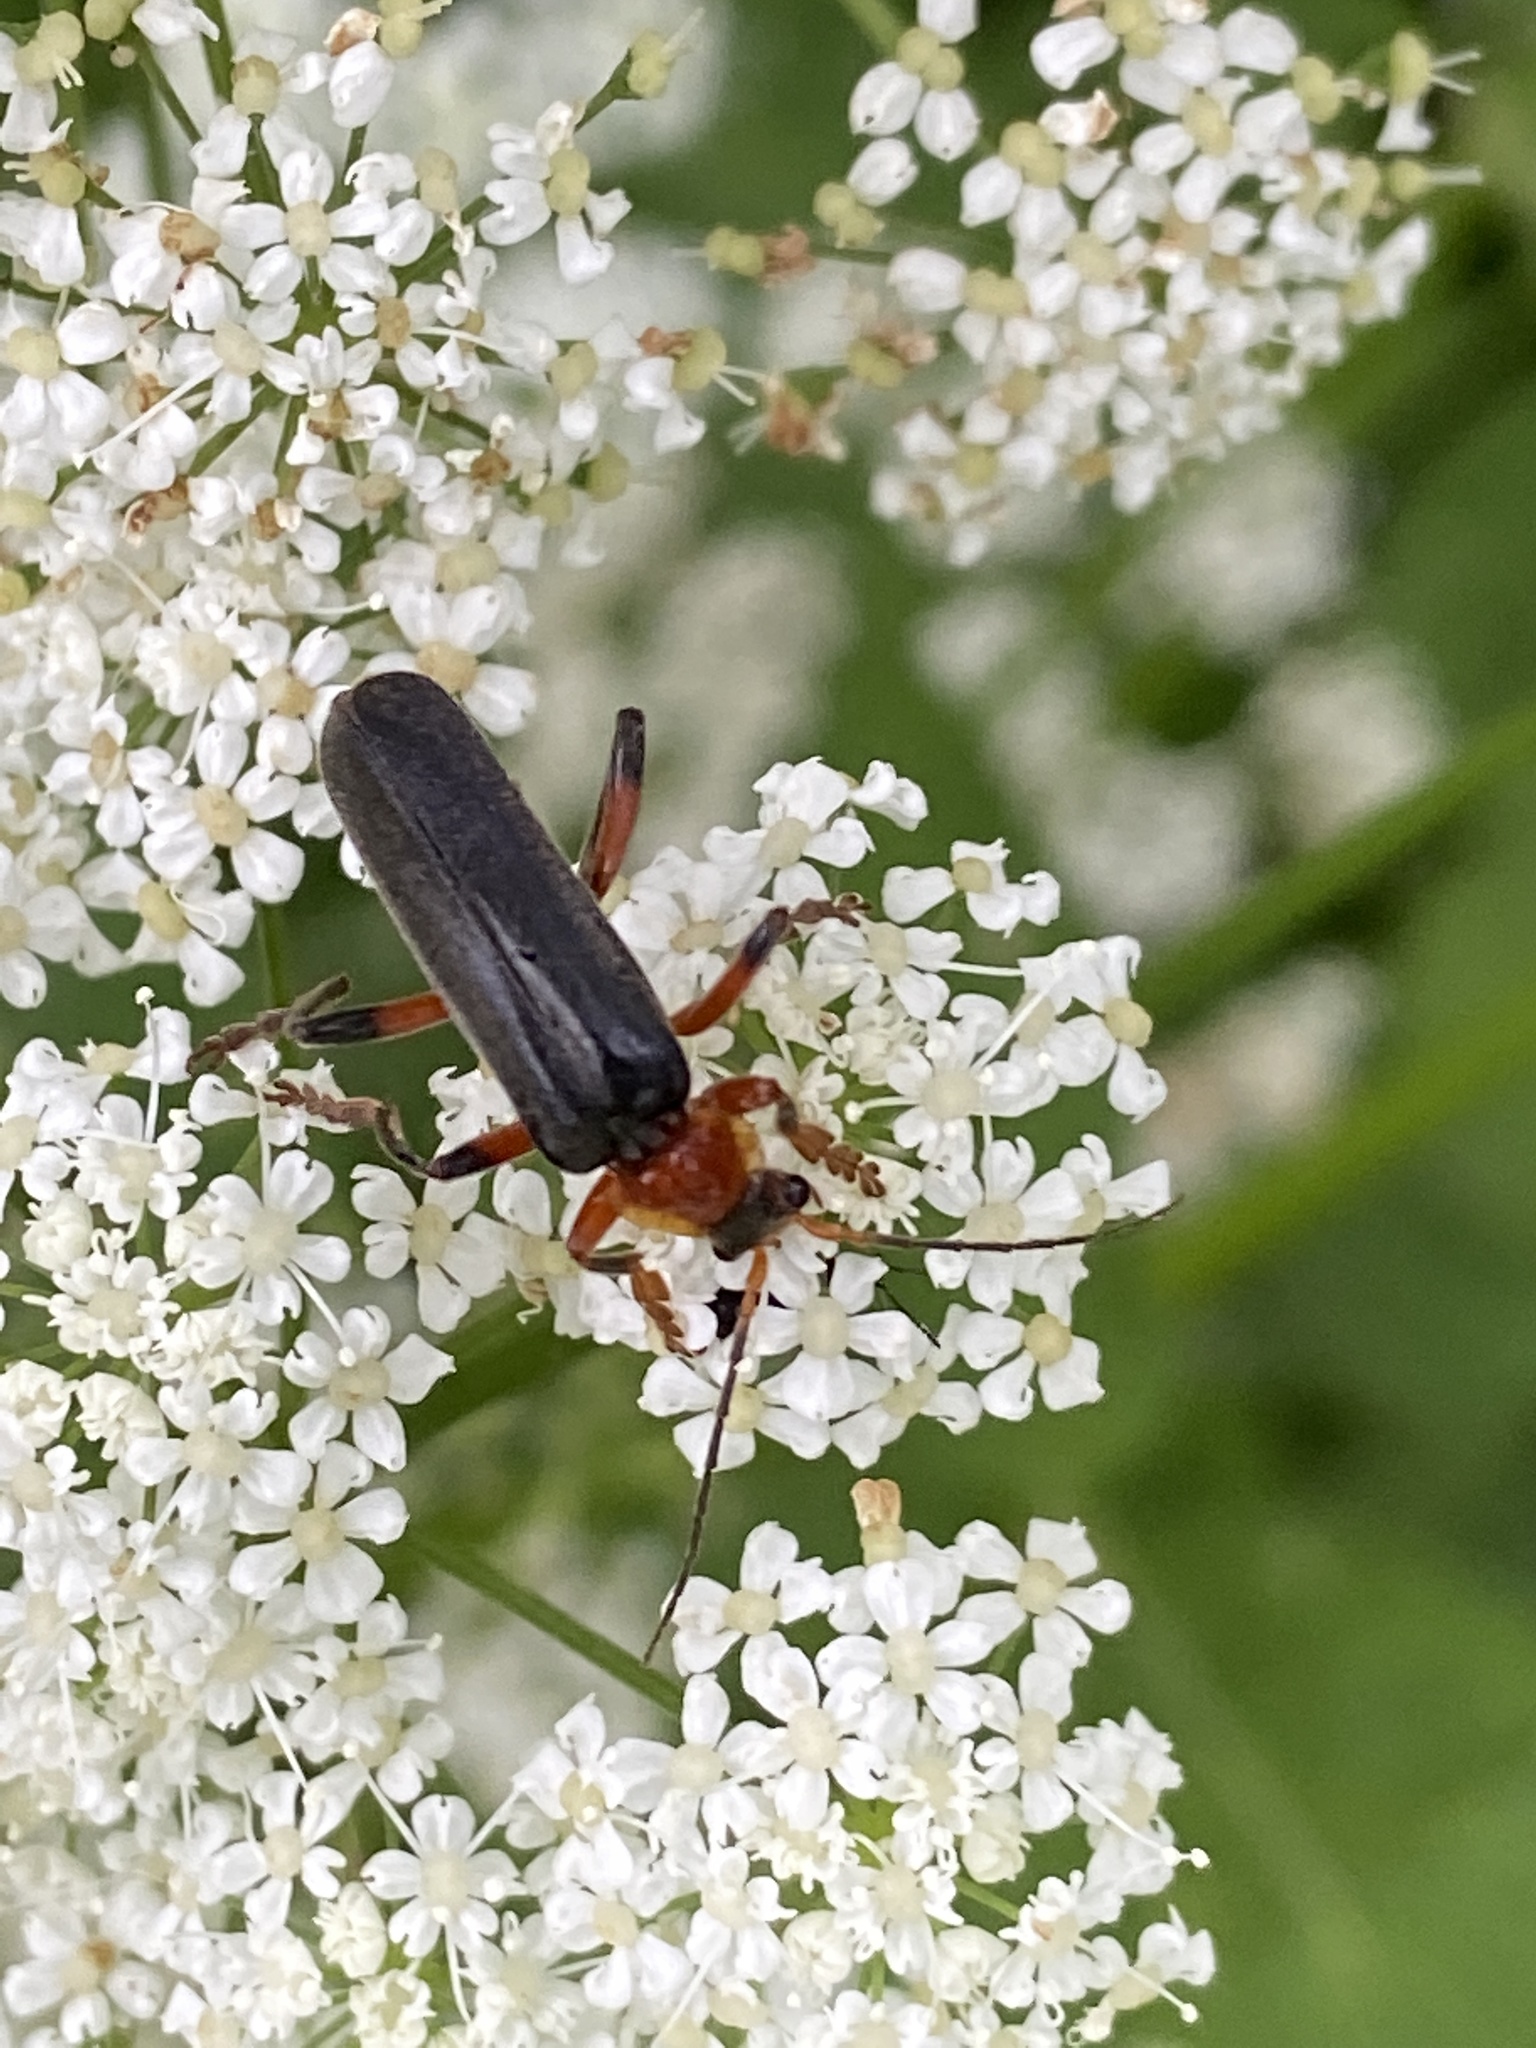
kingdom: Animalia
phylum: Arthropoda
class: Insecta
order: Coleoptera
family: Cantharidae
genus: Cantharis
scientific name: Cantharis livida
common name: Livid soldier beetle
